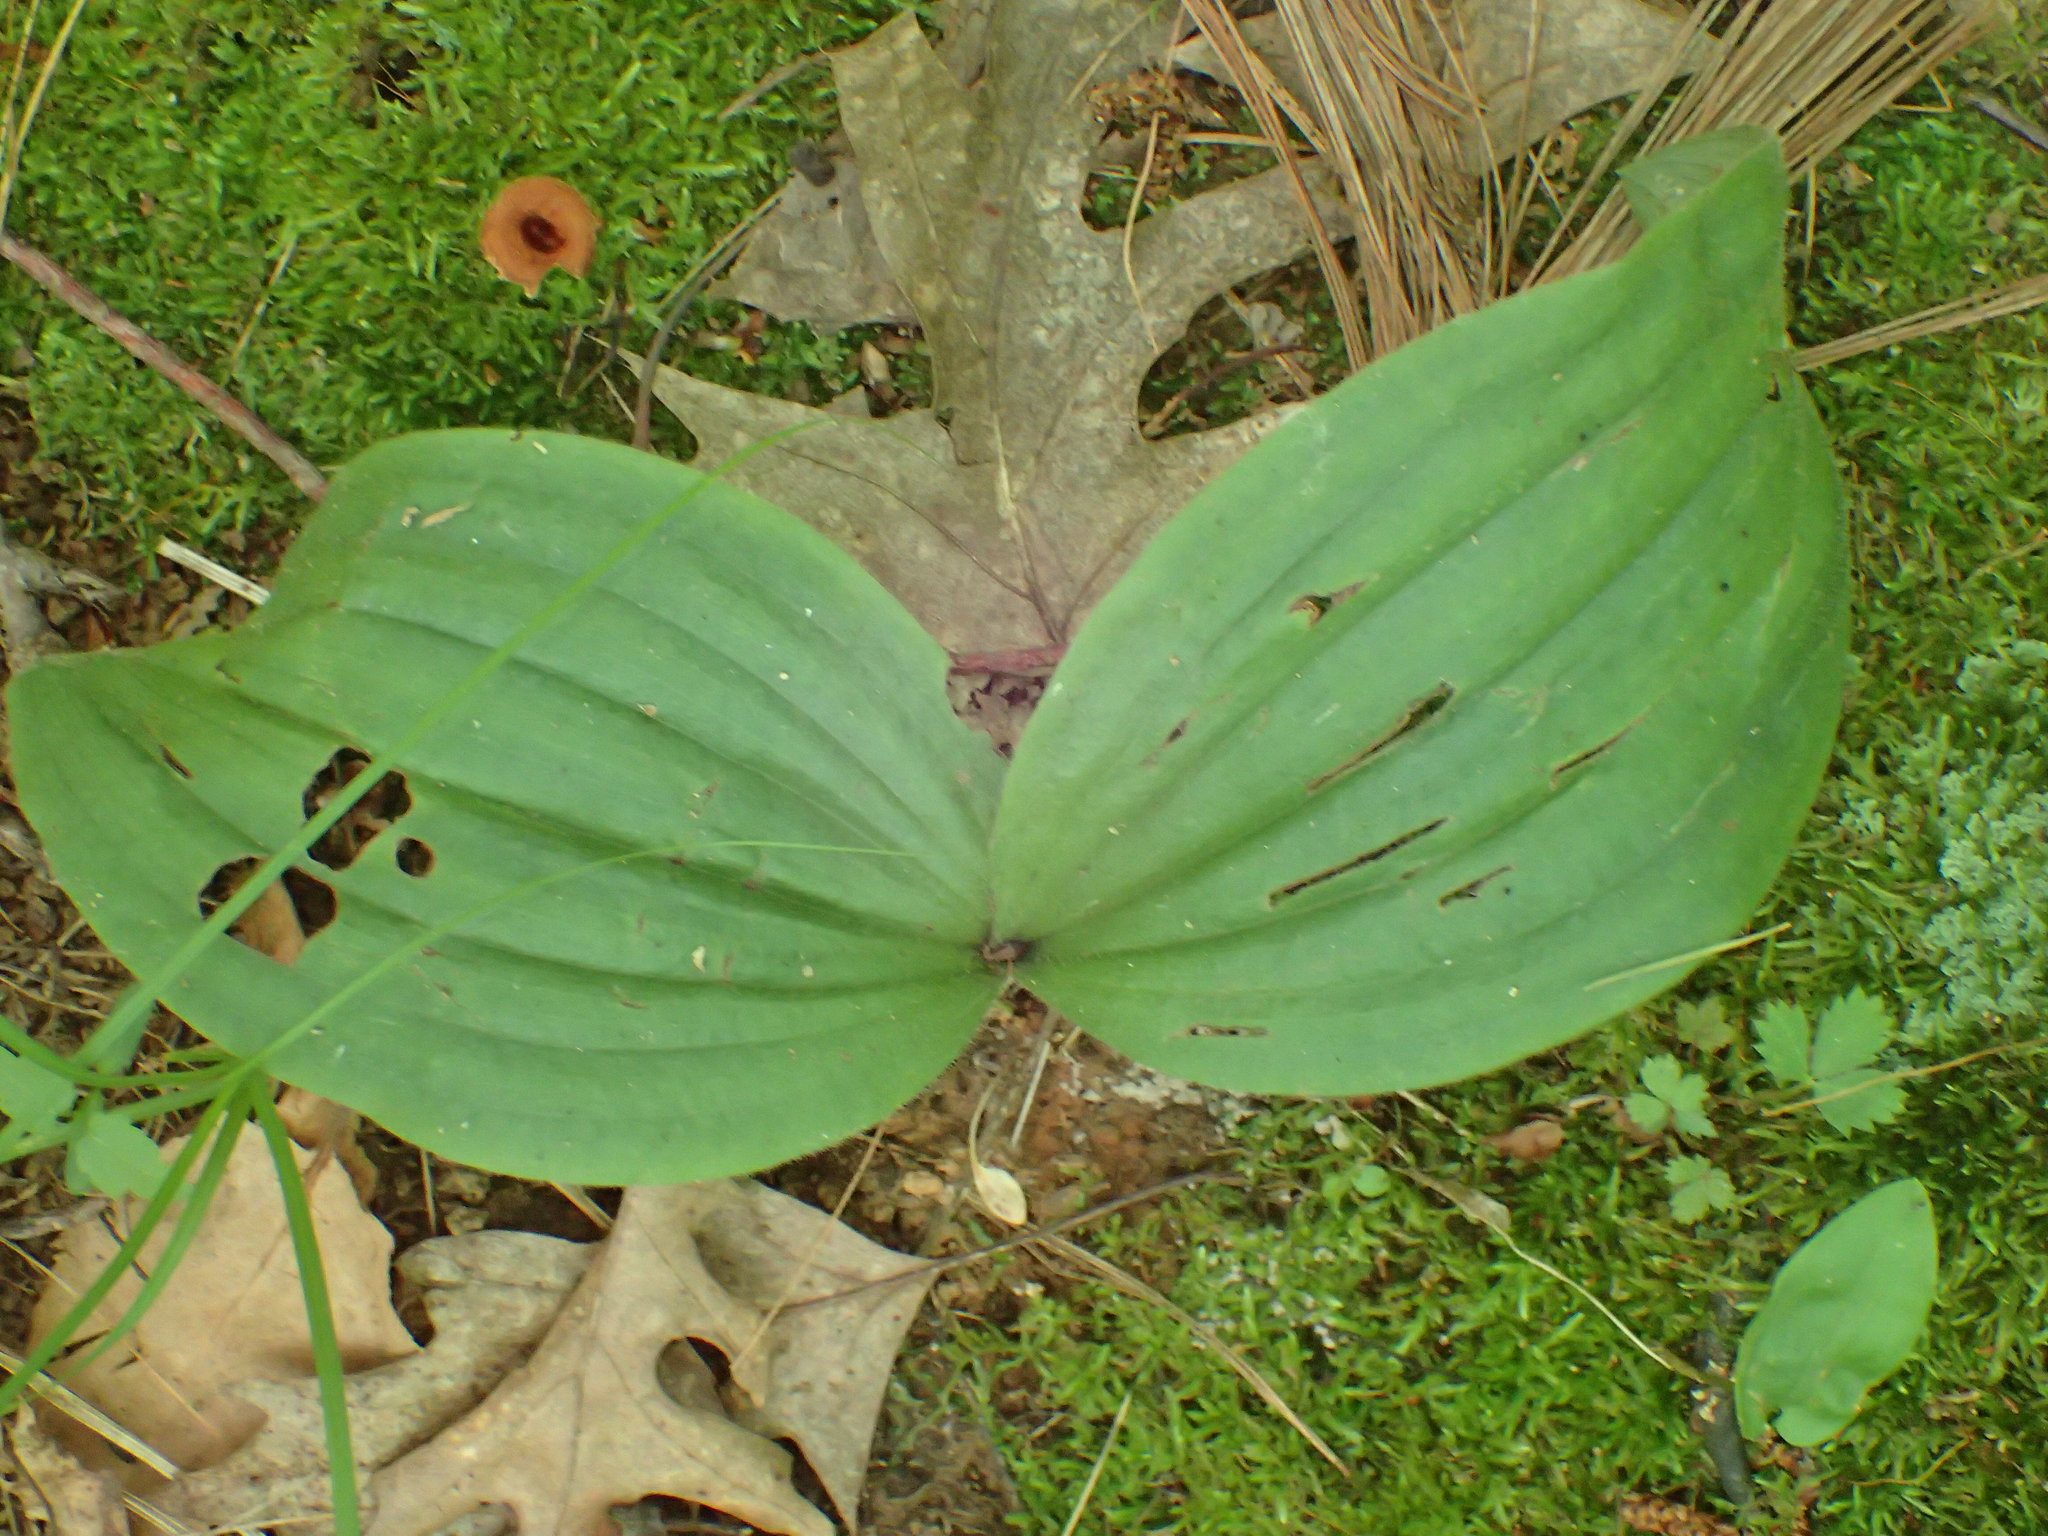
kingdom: Plantae
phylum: Tracheophyta
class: Liliopsida
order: Asparagales
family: Orchidaceae
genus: Cypripedium
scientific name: Cypripedium acaule
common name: Pink lady's-slipper
